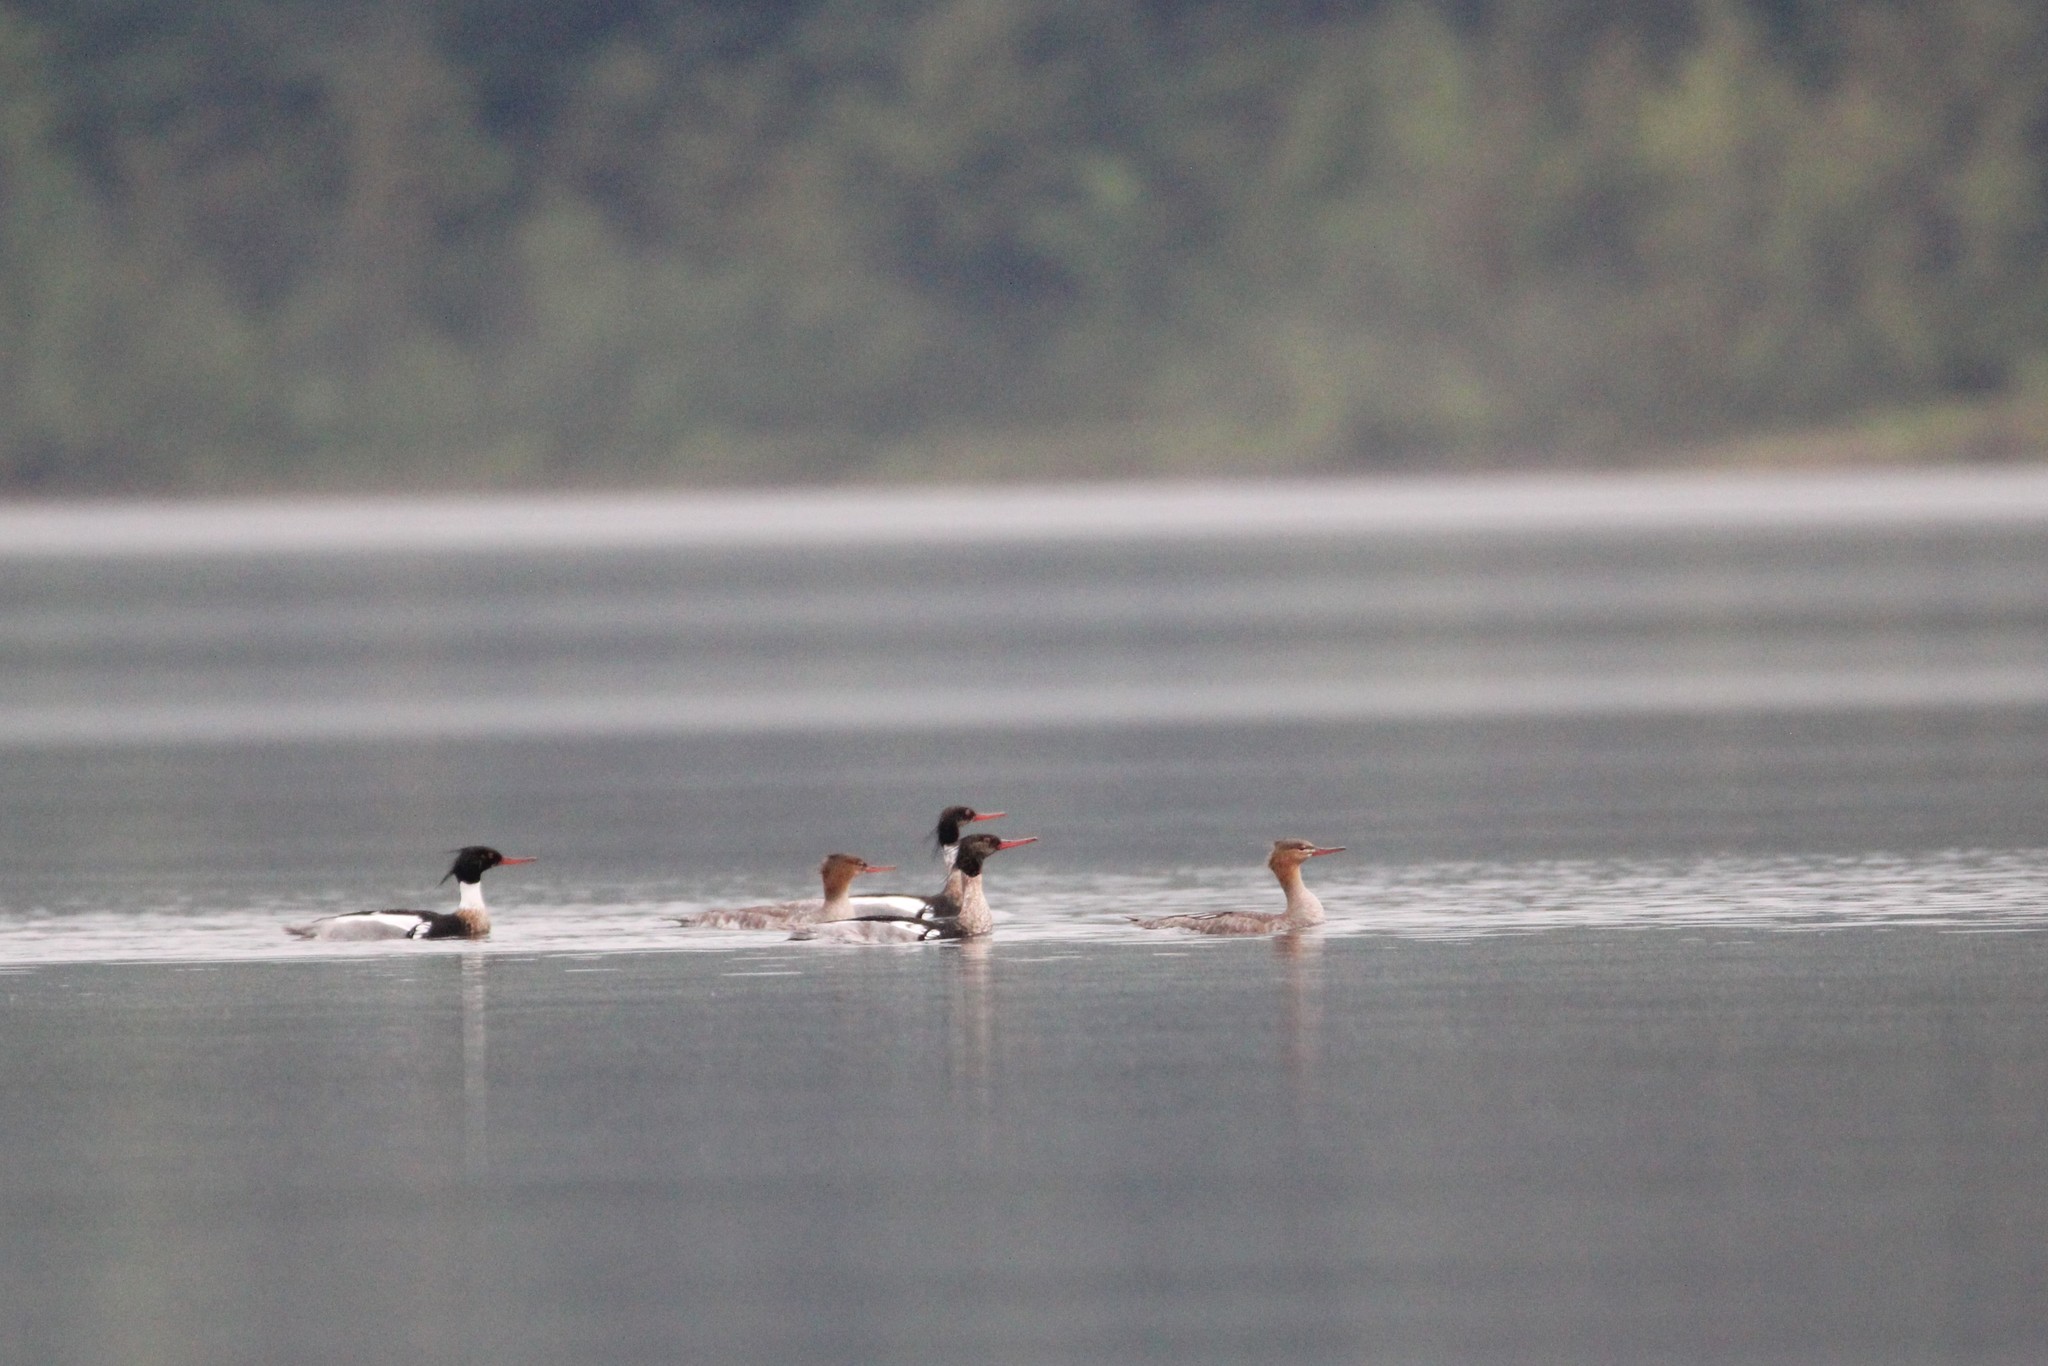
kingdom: Animalia
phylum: Chordata
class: Aves
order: Anseriformes
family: Anatidae
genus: Mergus
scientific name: Mergus serrator
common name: Red-breasted merganser
